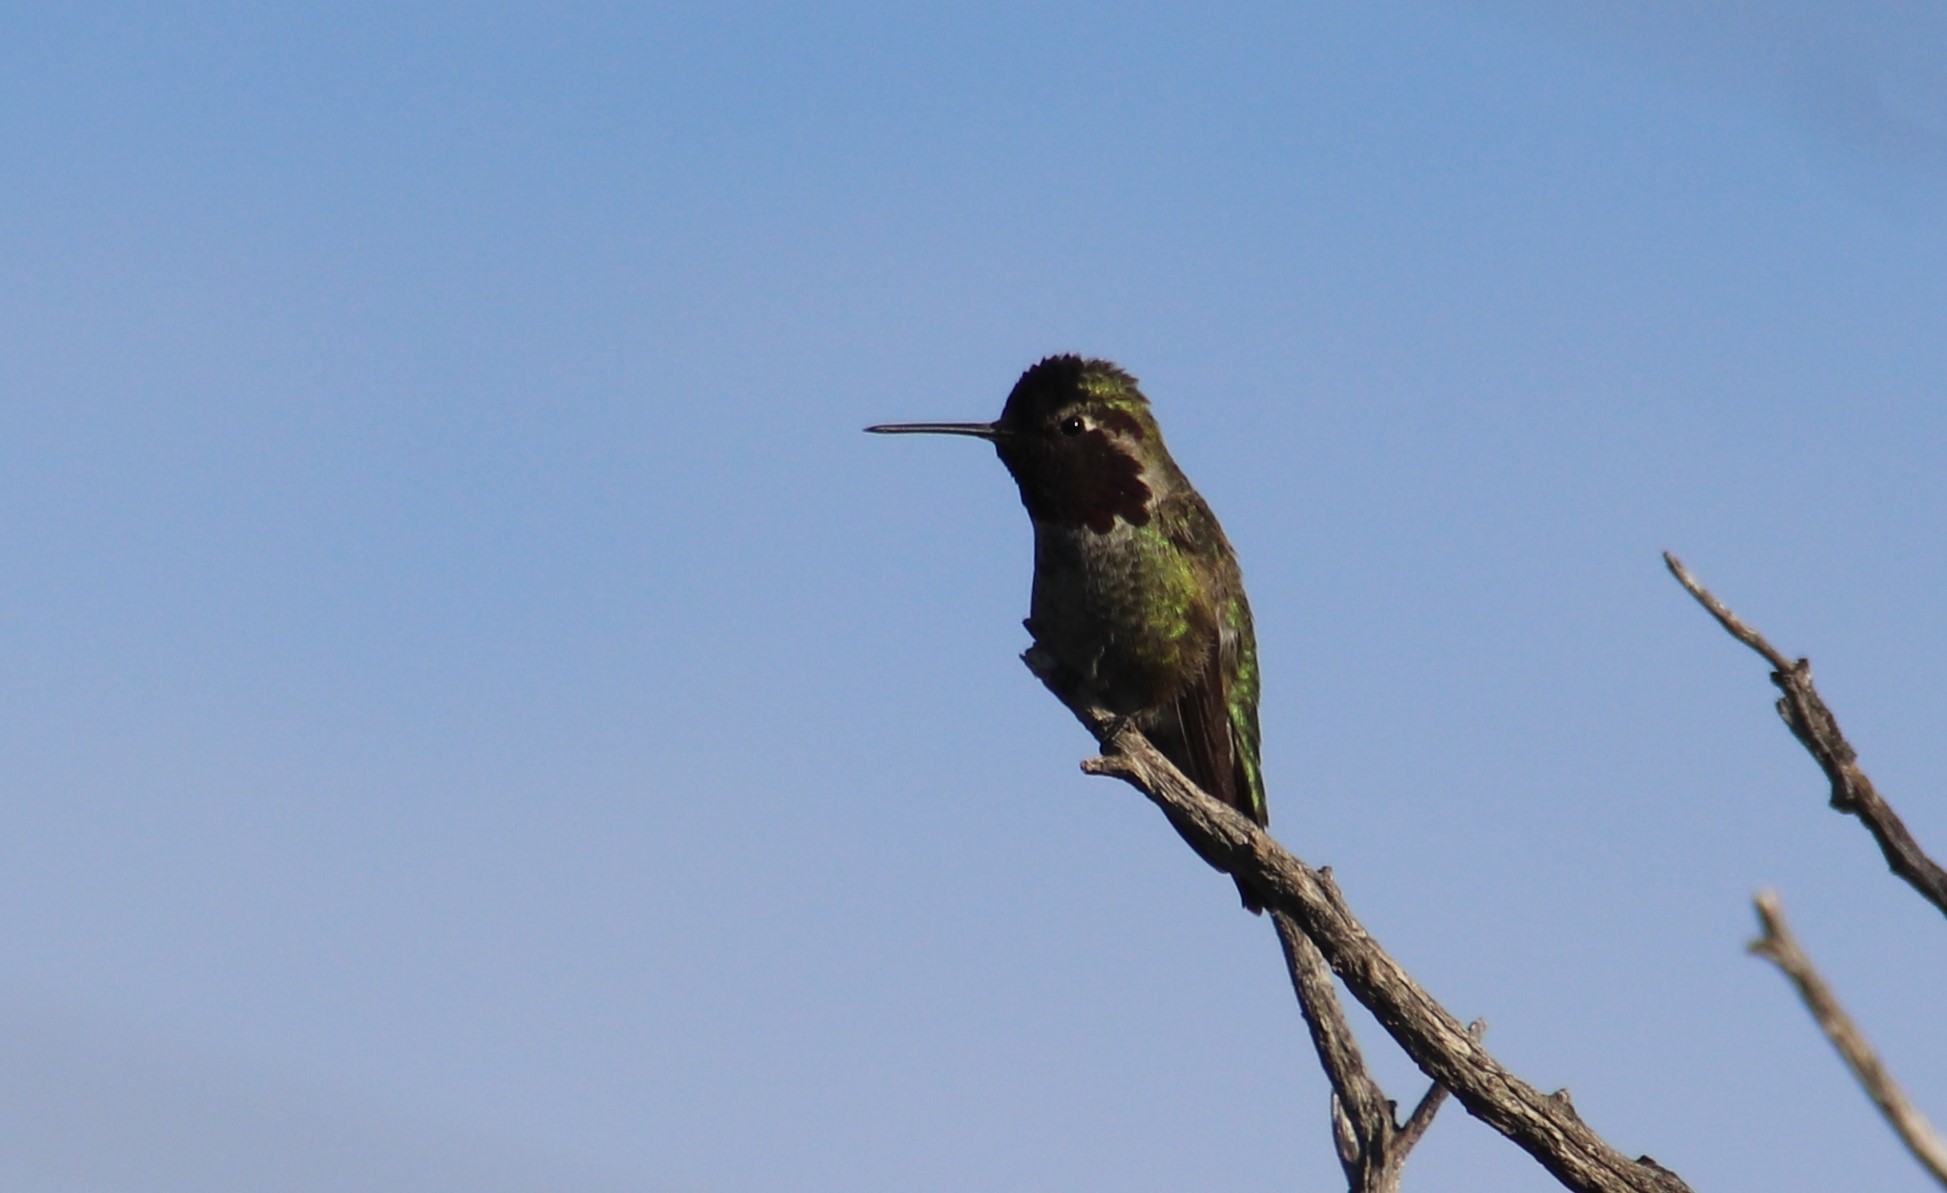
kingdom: Animalia
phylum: Chordata
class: Aves
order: Apodiformes
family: Trochilidae
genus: Calypte
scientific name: Calypte anna
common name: Anna's hummingbird
